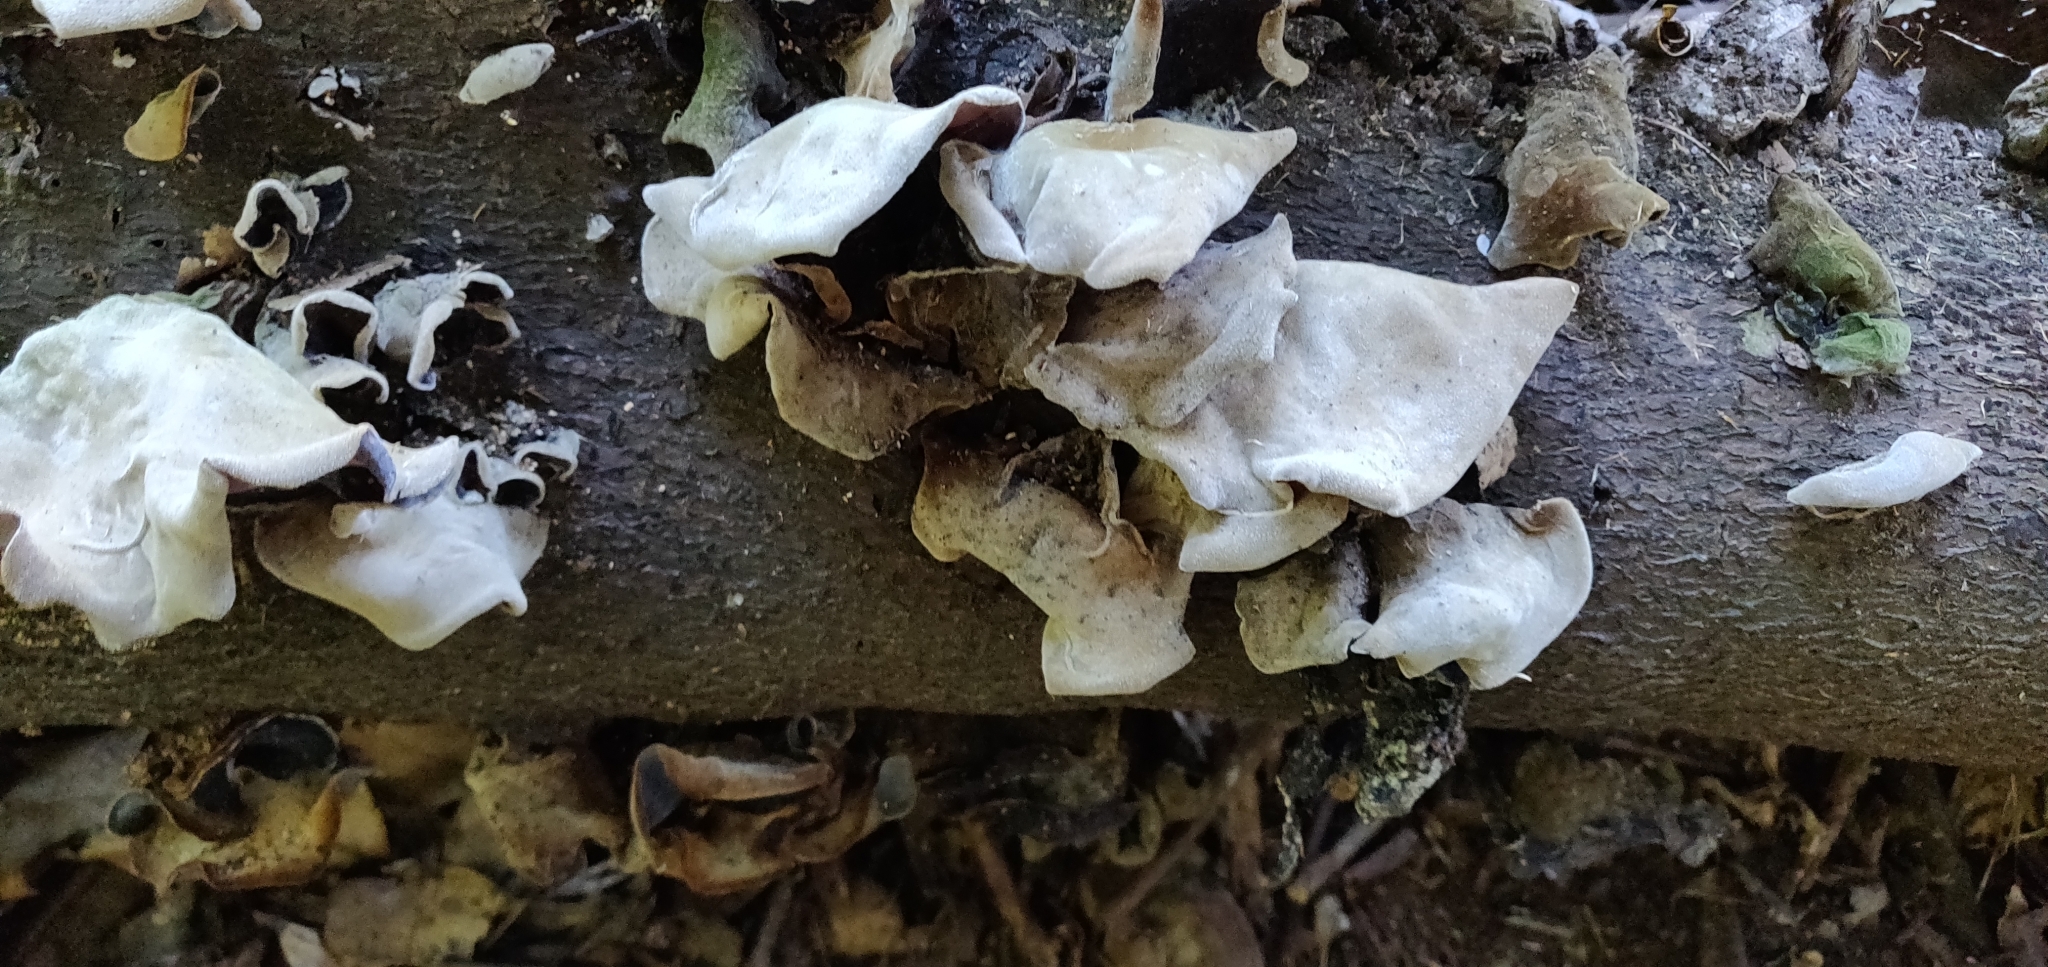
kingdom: Fungi
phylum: Basidiomycota
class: Agaricomycetes
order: Auriculariales
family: Auriculariaceae
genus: Auricularia
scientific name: Auricularia cornea
